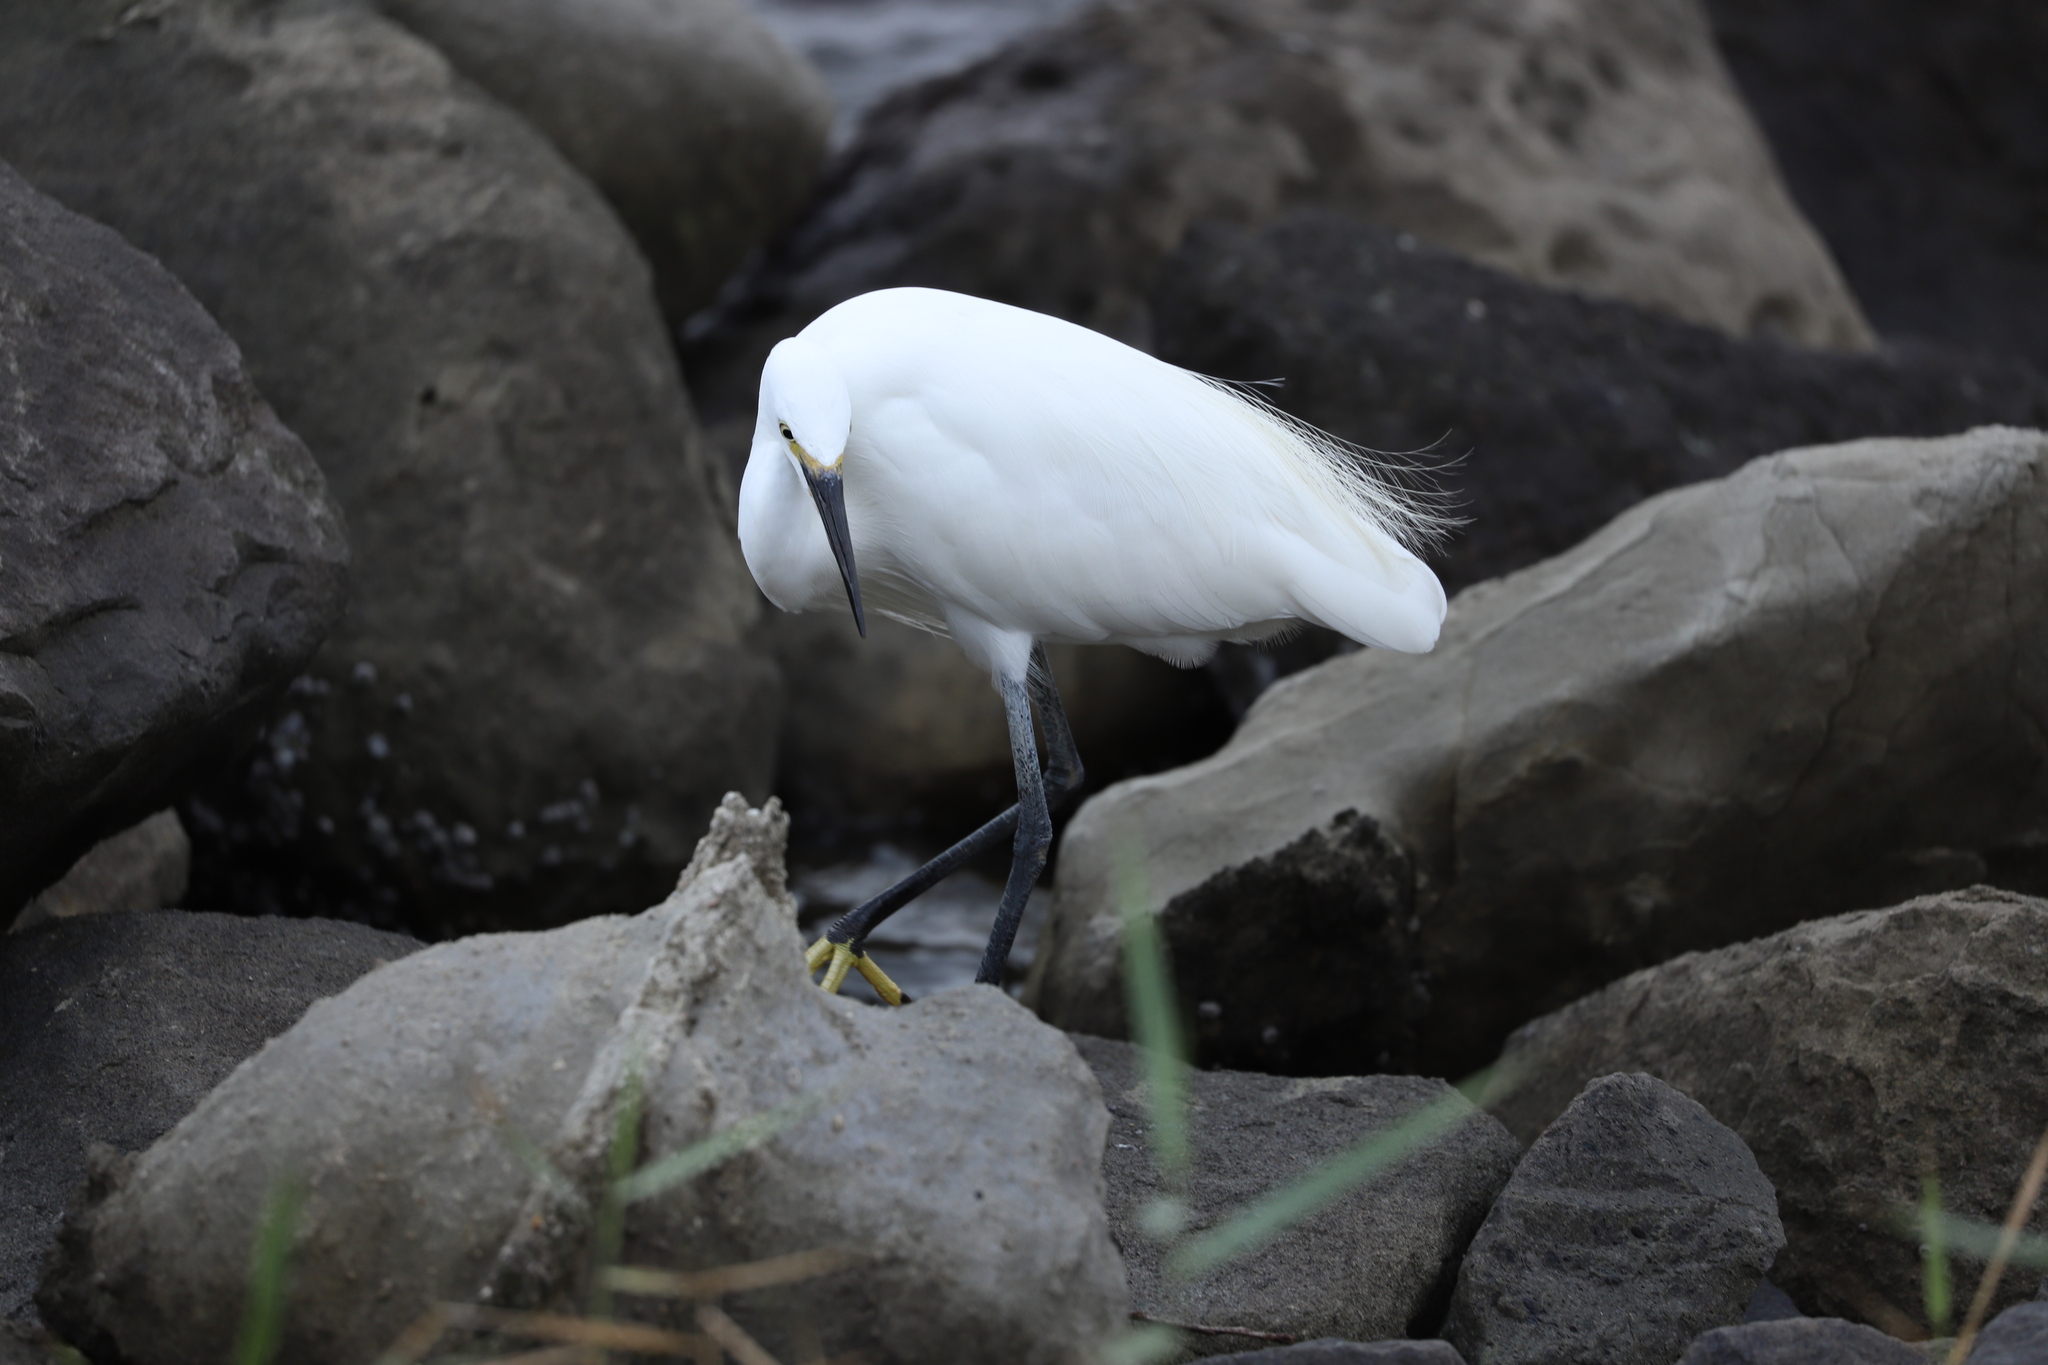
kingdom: Animalia
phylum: Chordata
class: Aves
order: Pelecaniformes
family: Ardeidae
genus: Egretta
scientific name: Egretta garzetta
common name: Little egret
